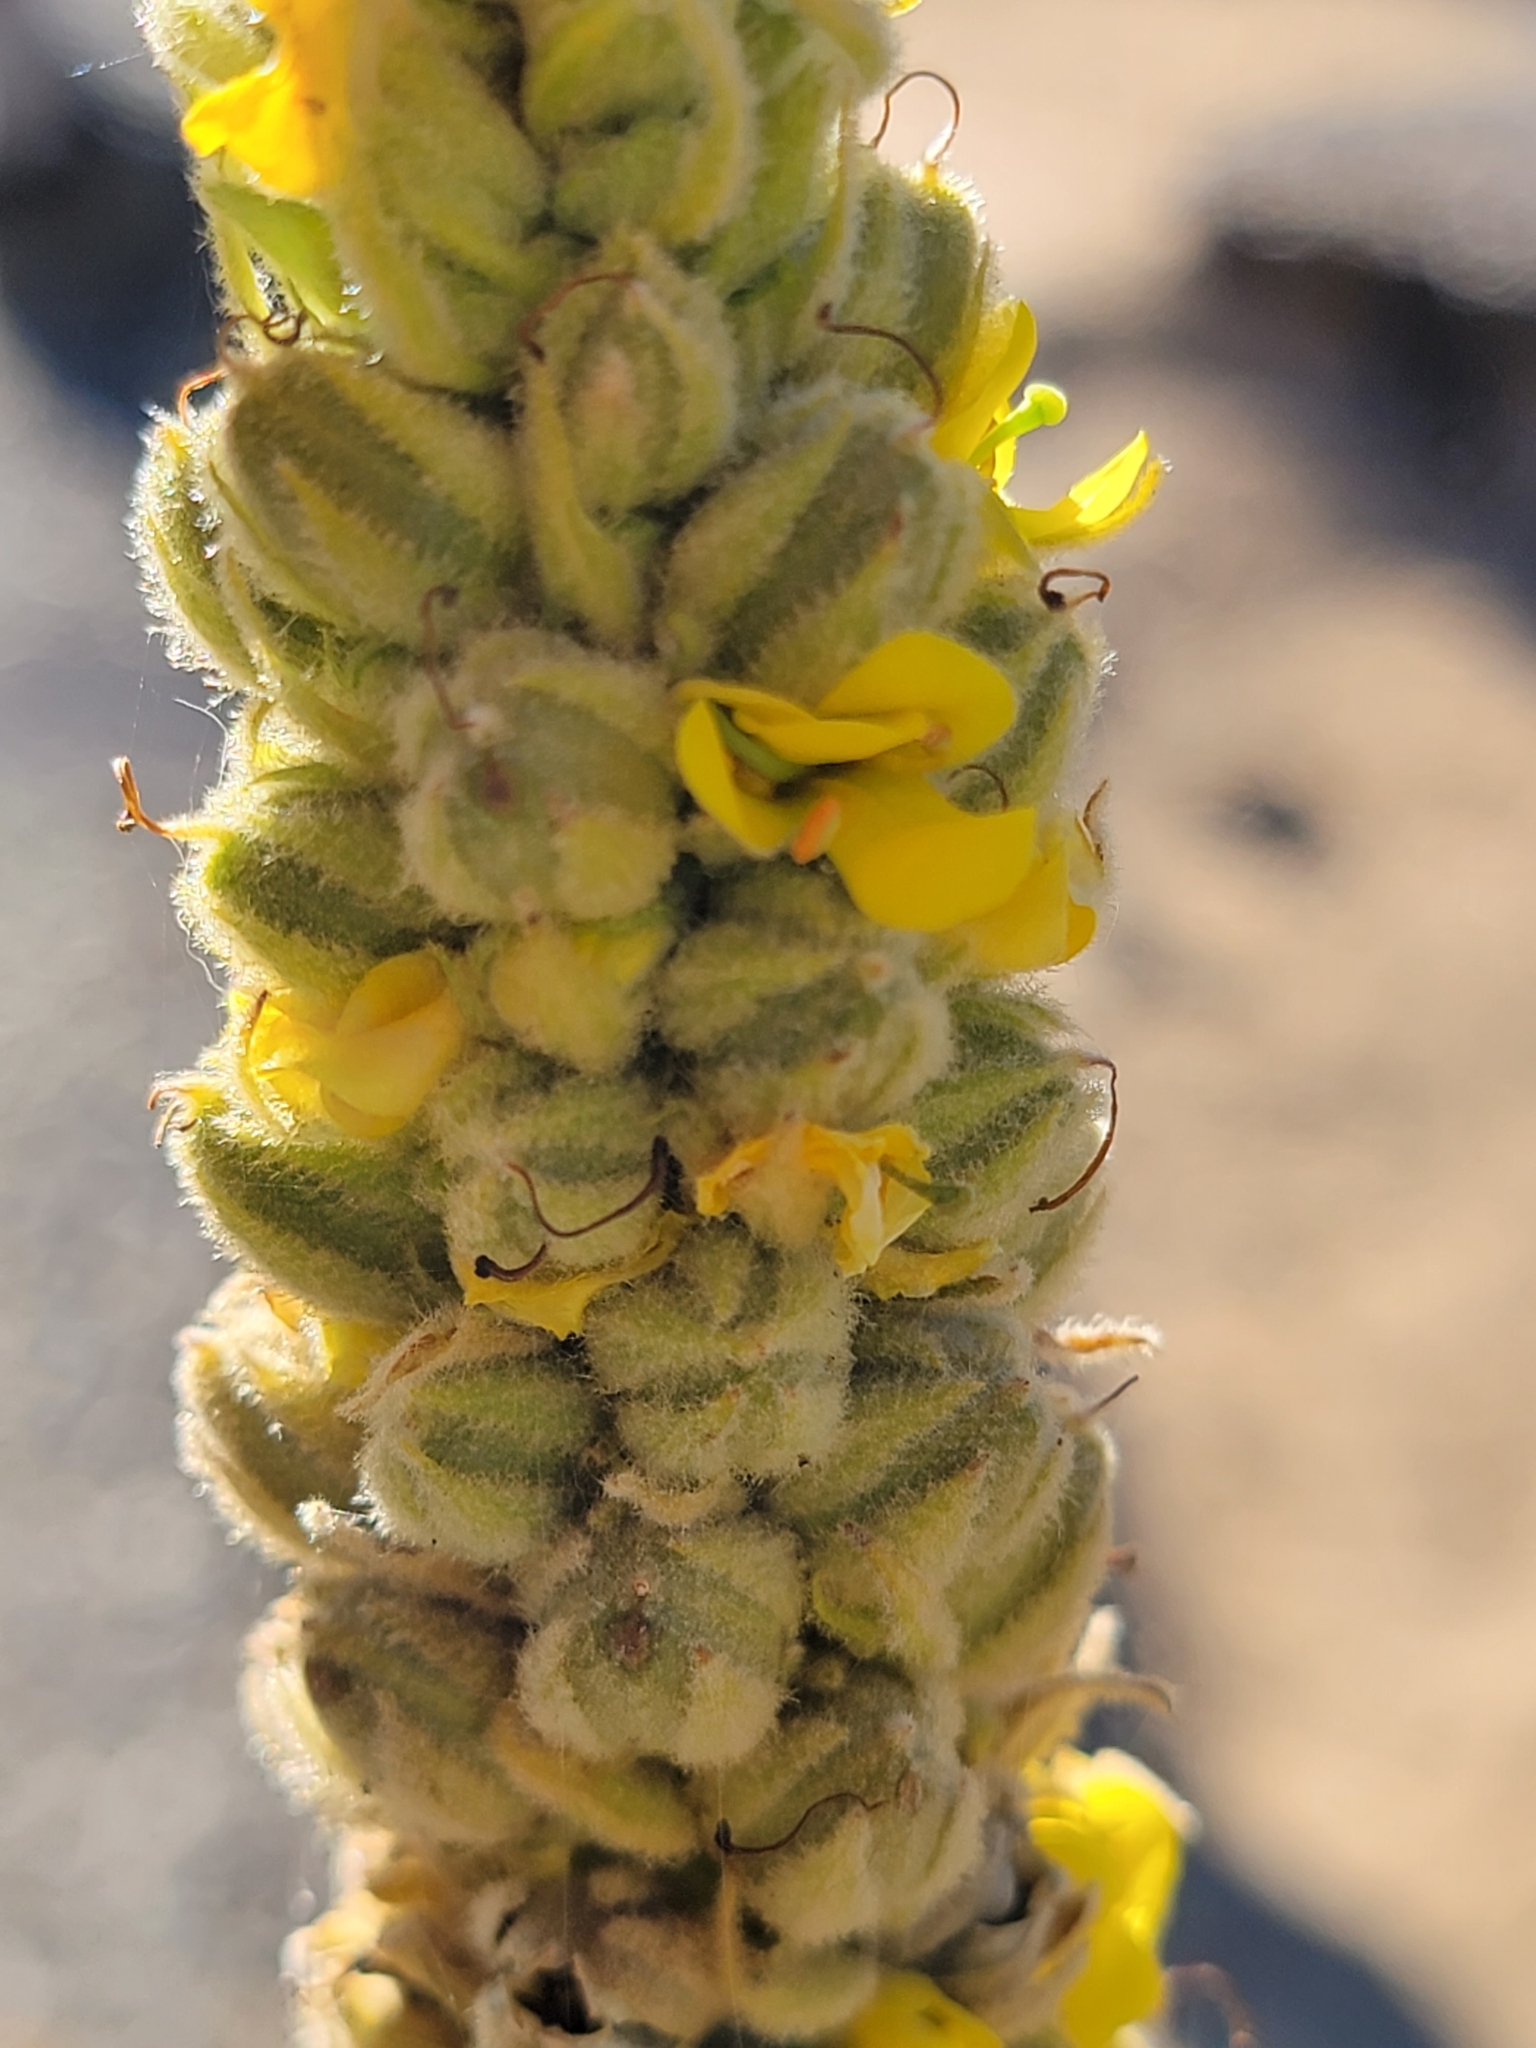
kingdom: Plantae
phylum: Tracheophyta
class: Magnoliopsida
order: Lamiales
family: Scrophulariaceae
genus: Verbascum
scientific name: Verbascum thapsus
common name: Common mullein
